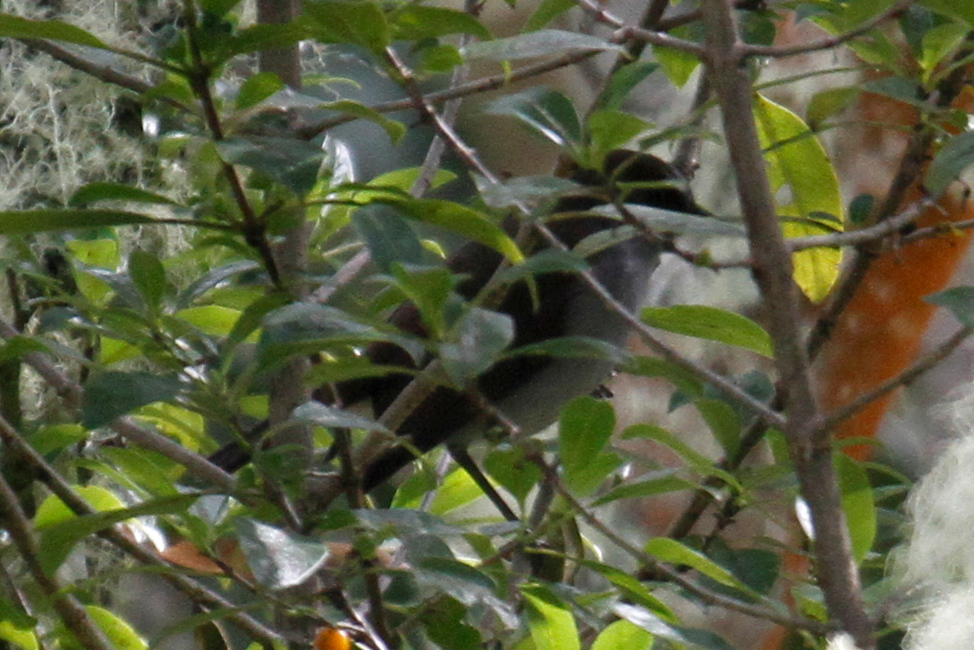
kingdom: Animalia
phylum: Chordata
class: Aves
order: Passeriformes
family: Turdidae
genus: Myadestes
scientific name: Myadestes obscurus
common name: Omao
